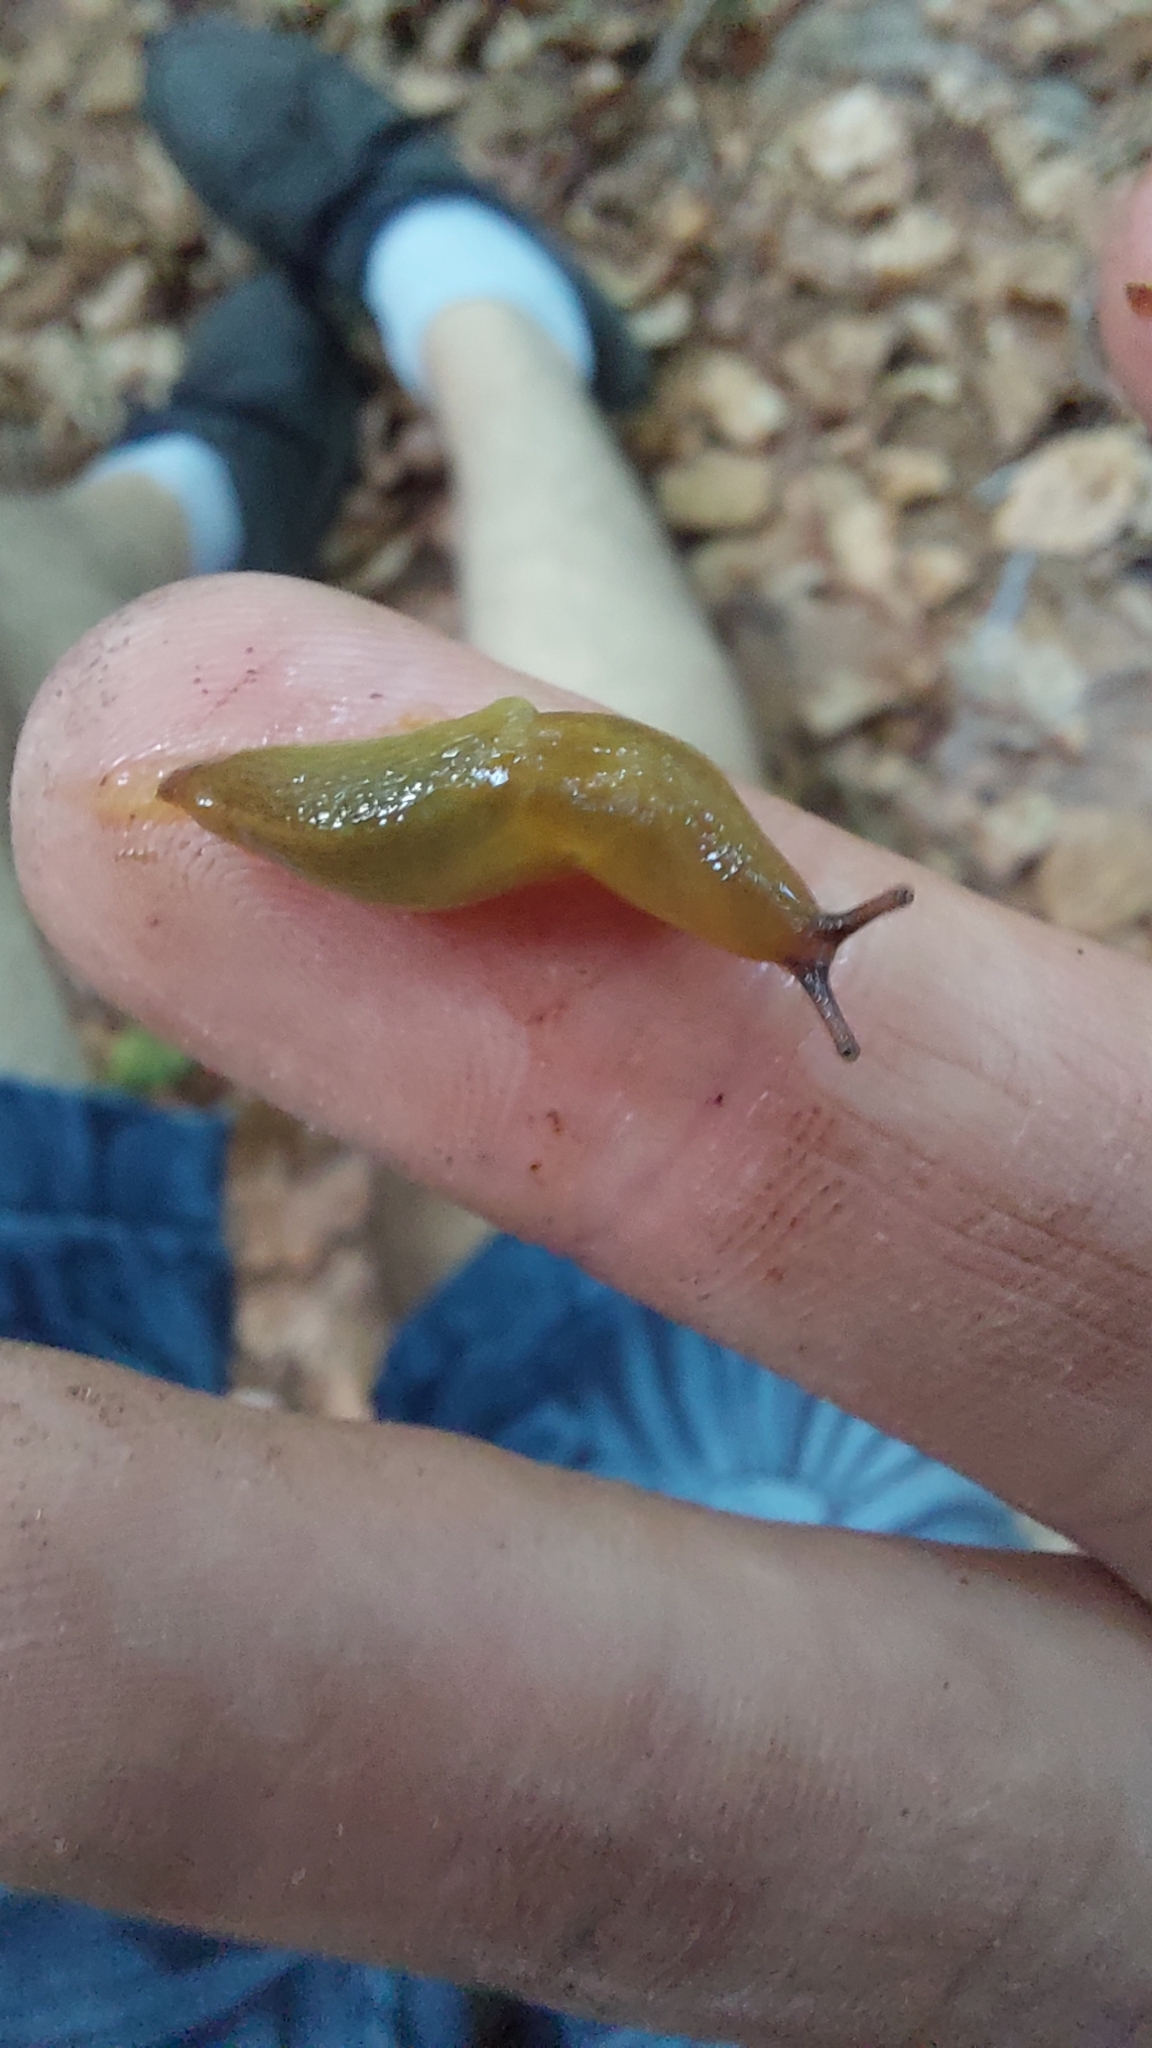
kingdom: Animalia
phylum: Mollusca
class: Gastropoda
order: Stylommatophora
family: Limacidae
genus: Malacolimax
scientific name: Malacolimax tenellus
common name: Lemon slug
